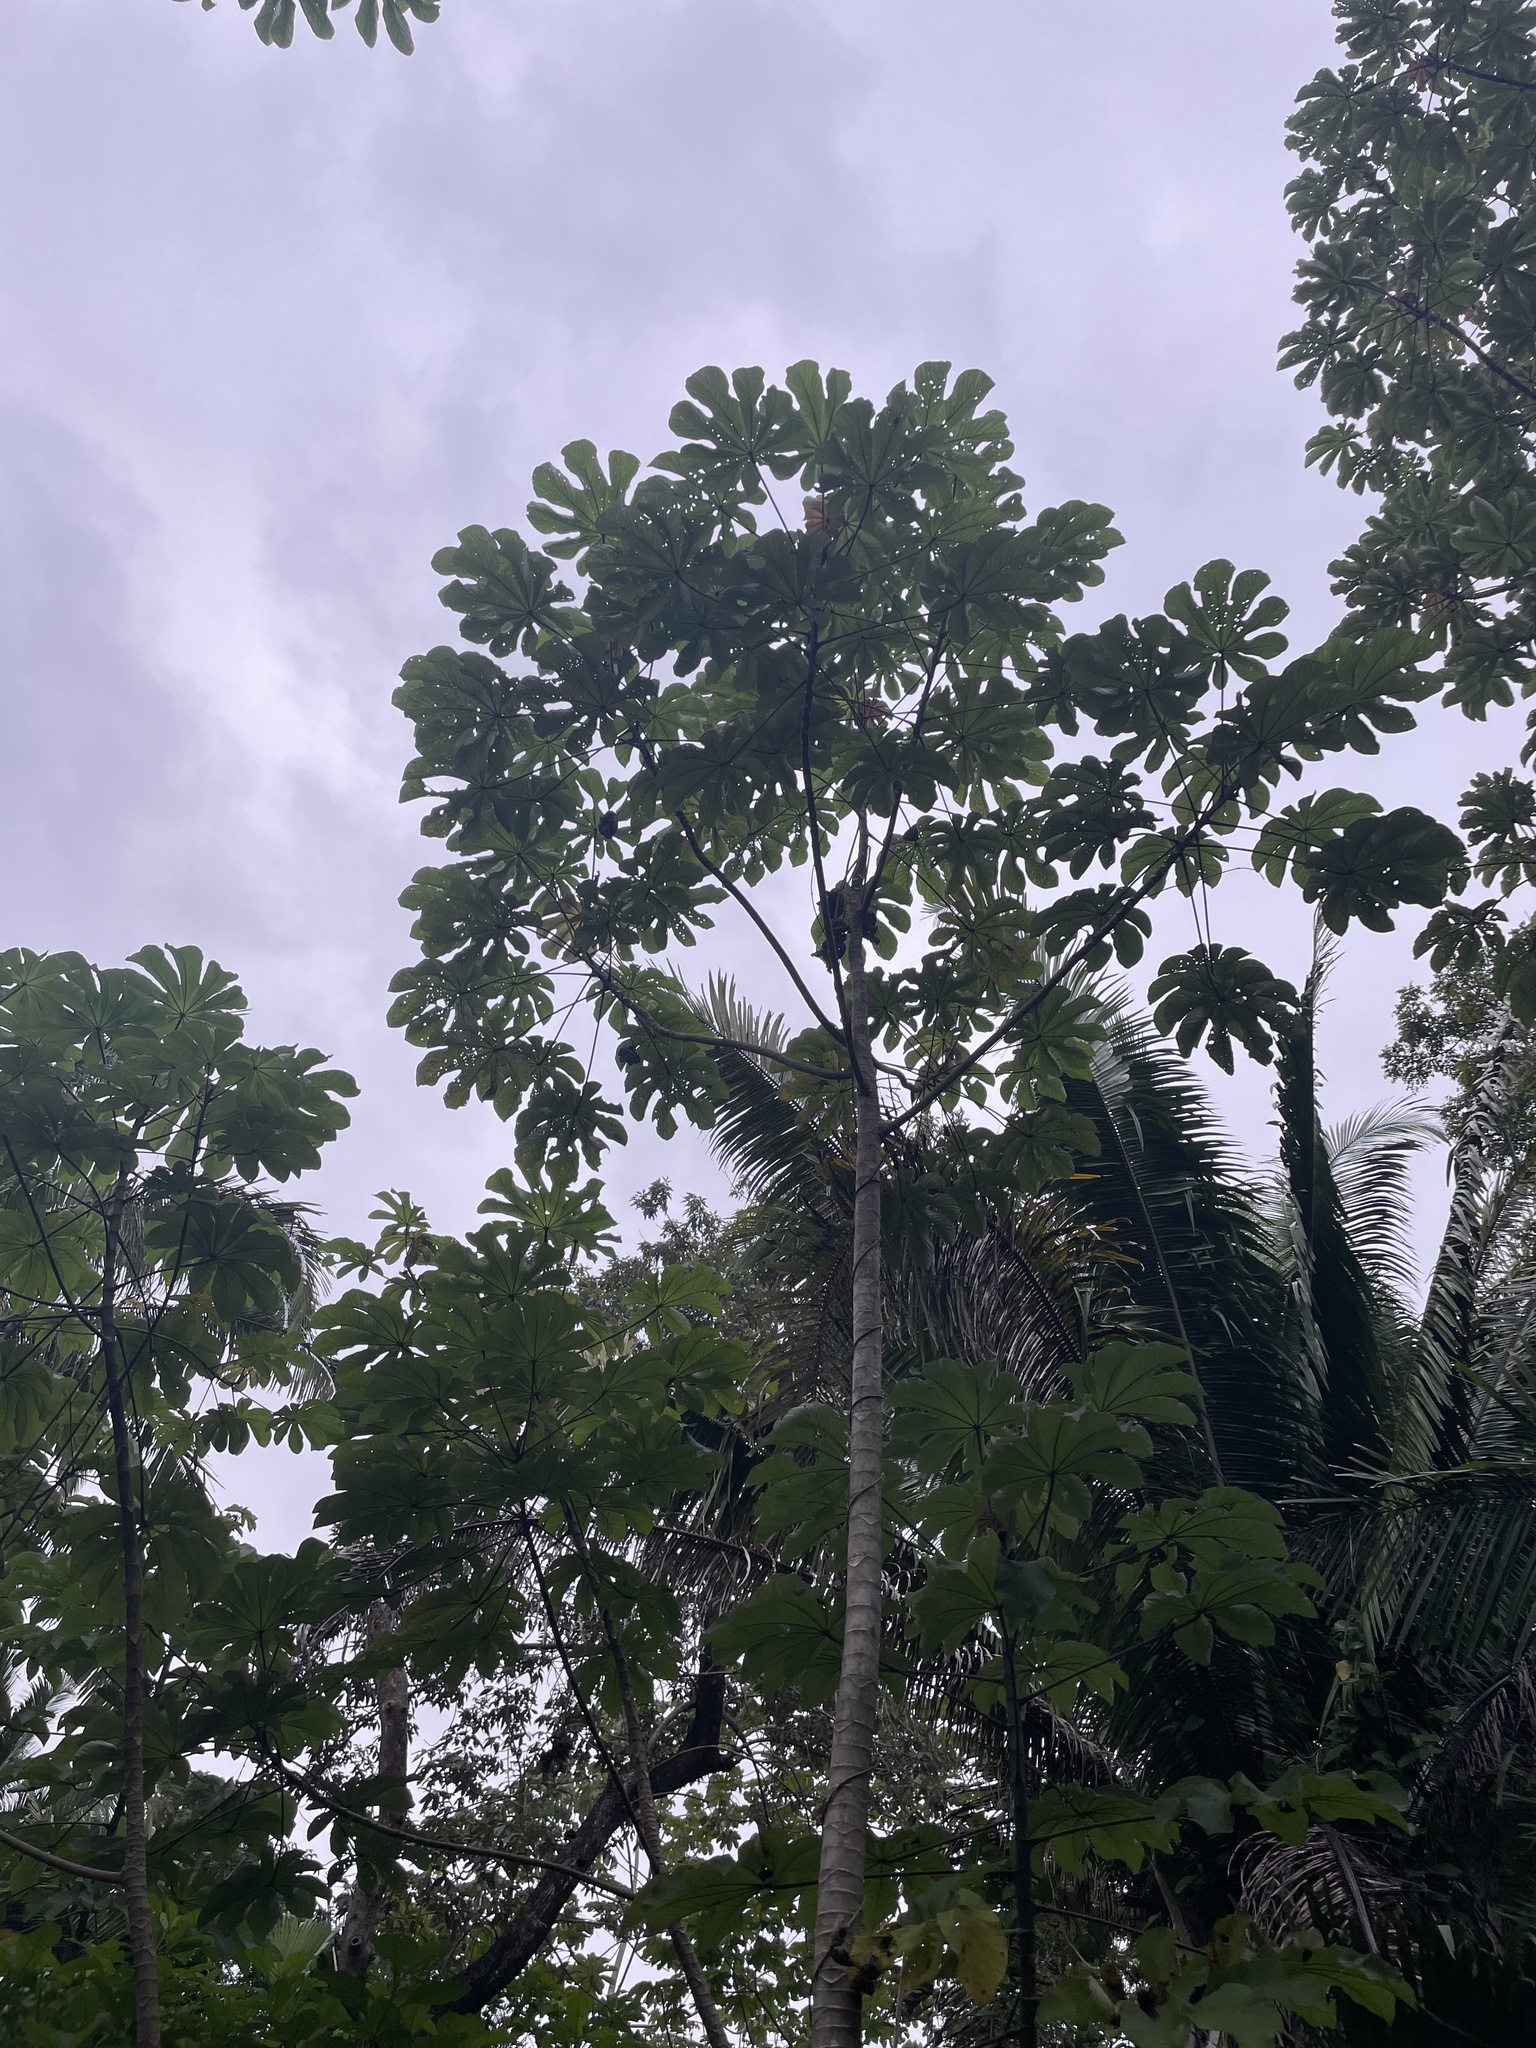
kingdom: Plantae
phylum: Tracheophyta
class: Magnoliopsida
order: Rosales
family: Urticaceae
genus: Cecropia
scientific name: Cecropia peltata
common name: Trumpet-tree
